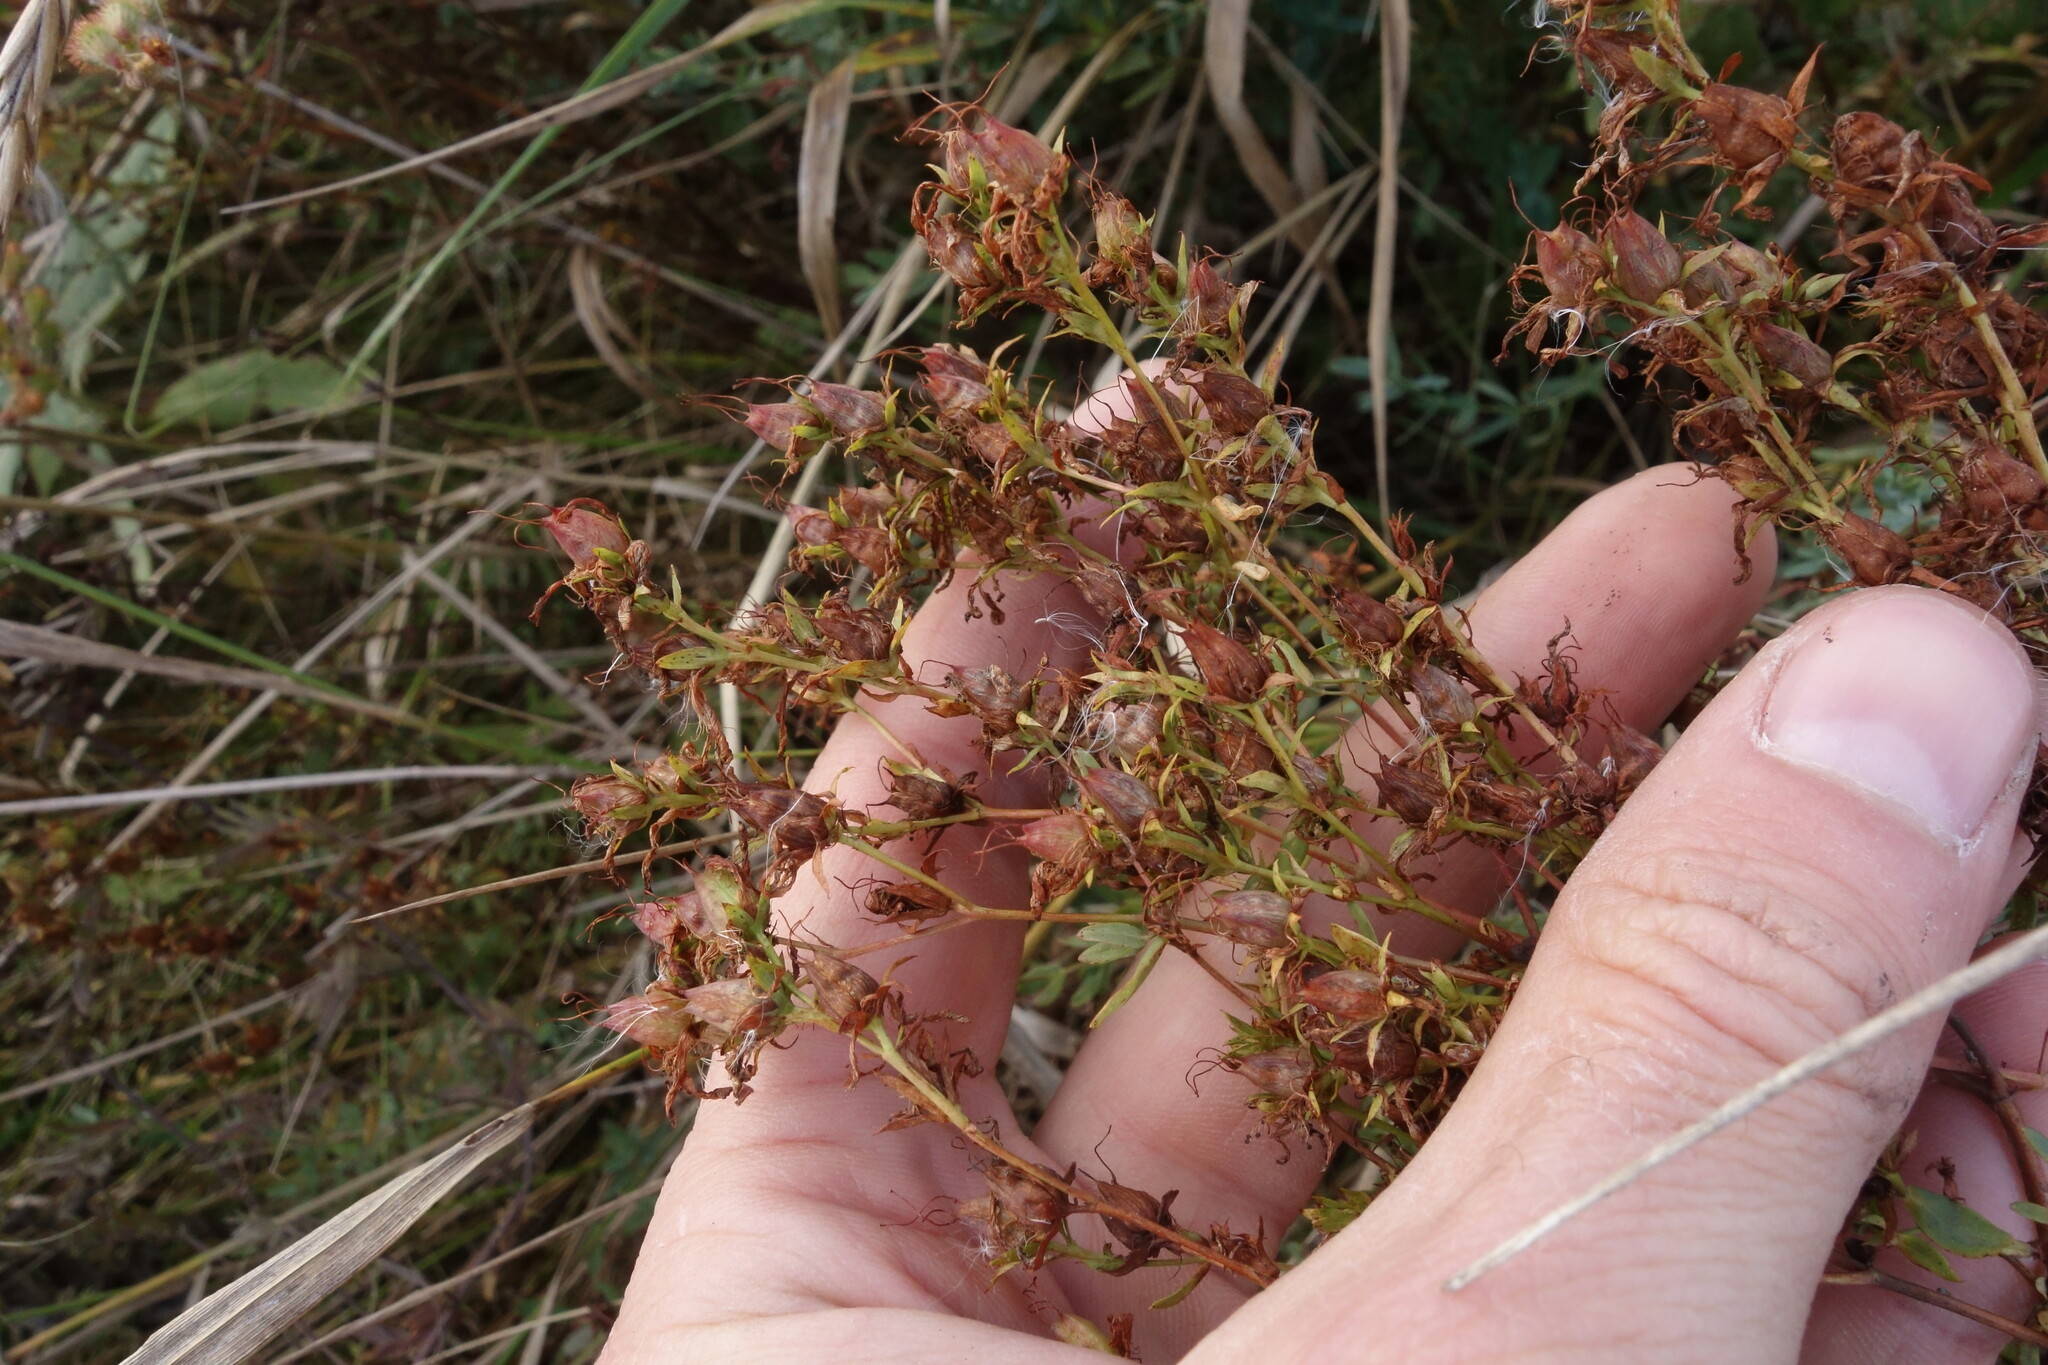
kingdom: Plantae
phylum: Tracheophyta
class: Magnoliopsida
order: Malpighiales
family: Hypericaceae
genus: Hypericum
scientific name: Hypericum perforatum
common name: Common st. johnswort
